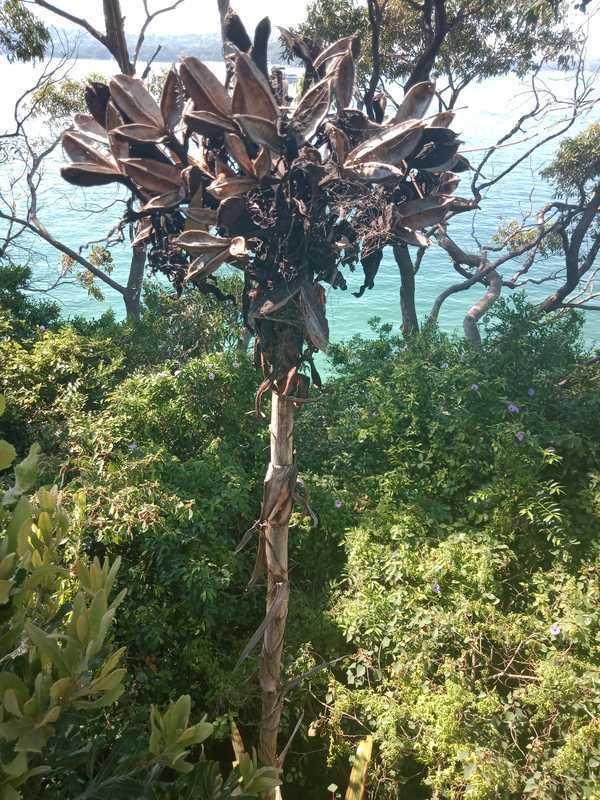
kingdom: Plantae
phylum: Tracheophyta
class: Liliopsida
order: Asparagales
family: Doryanthaceae
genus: Doryanthes
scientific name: Doryanthes excelsa
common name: Giant-lily
